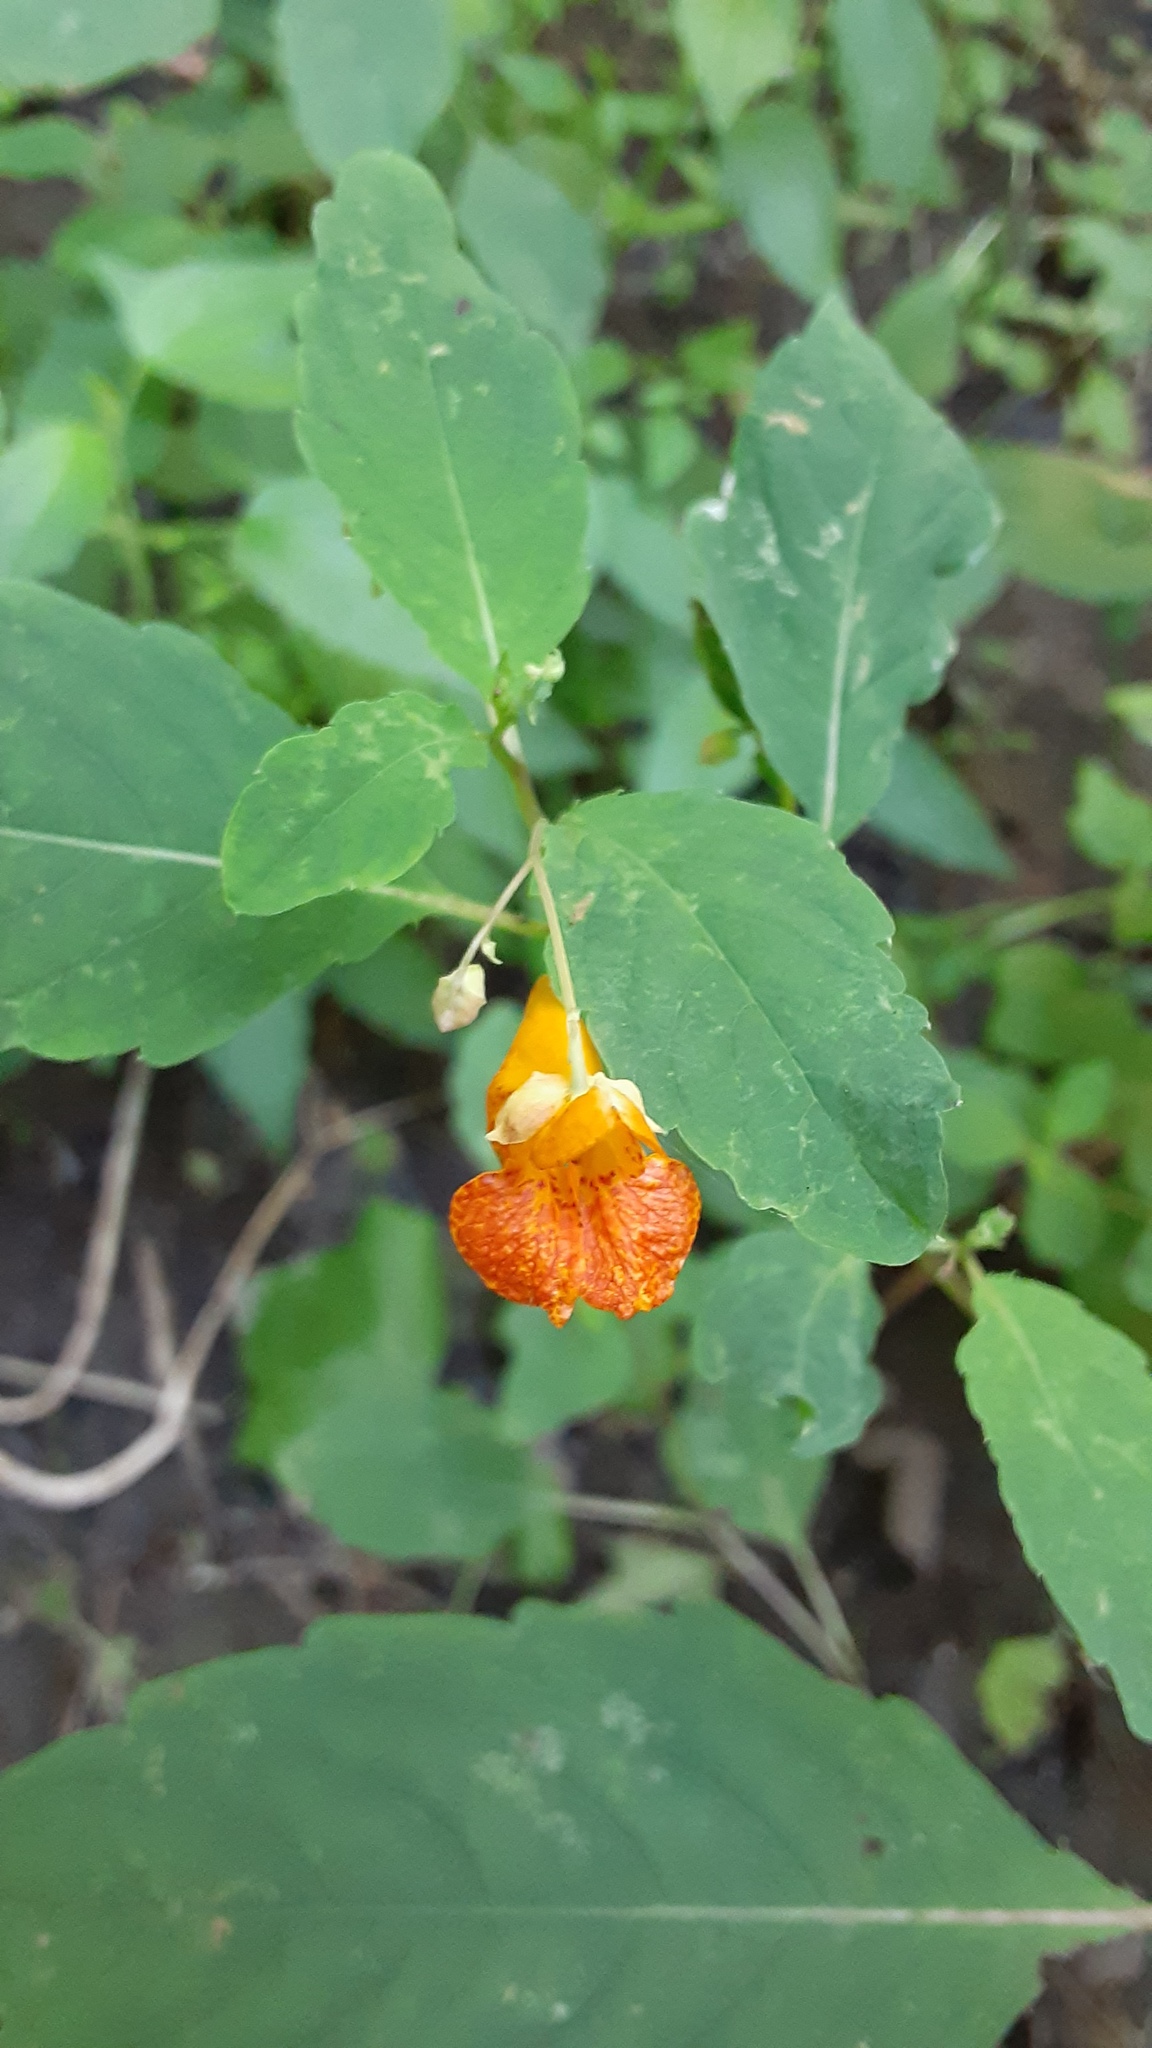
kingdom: Plantae
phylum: Tracheophyta
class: Magnoliopsida
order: Ericales
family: Balsaminaceae
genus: Impatiens
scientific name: Impatiens capensis
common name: Orange balsam
